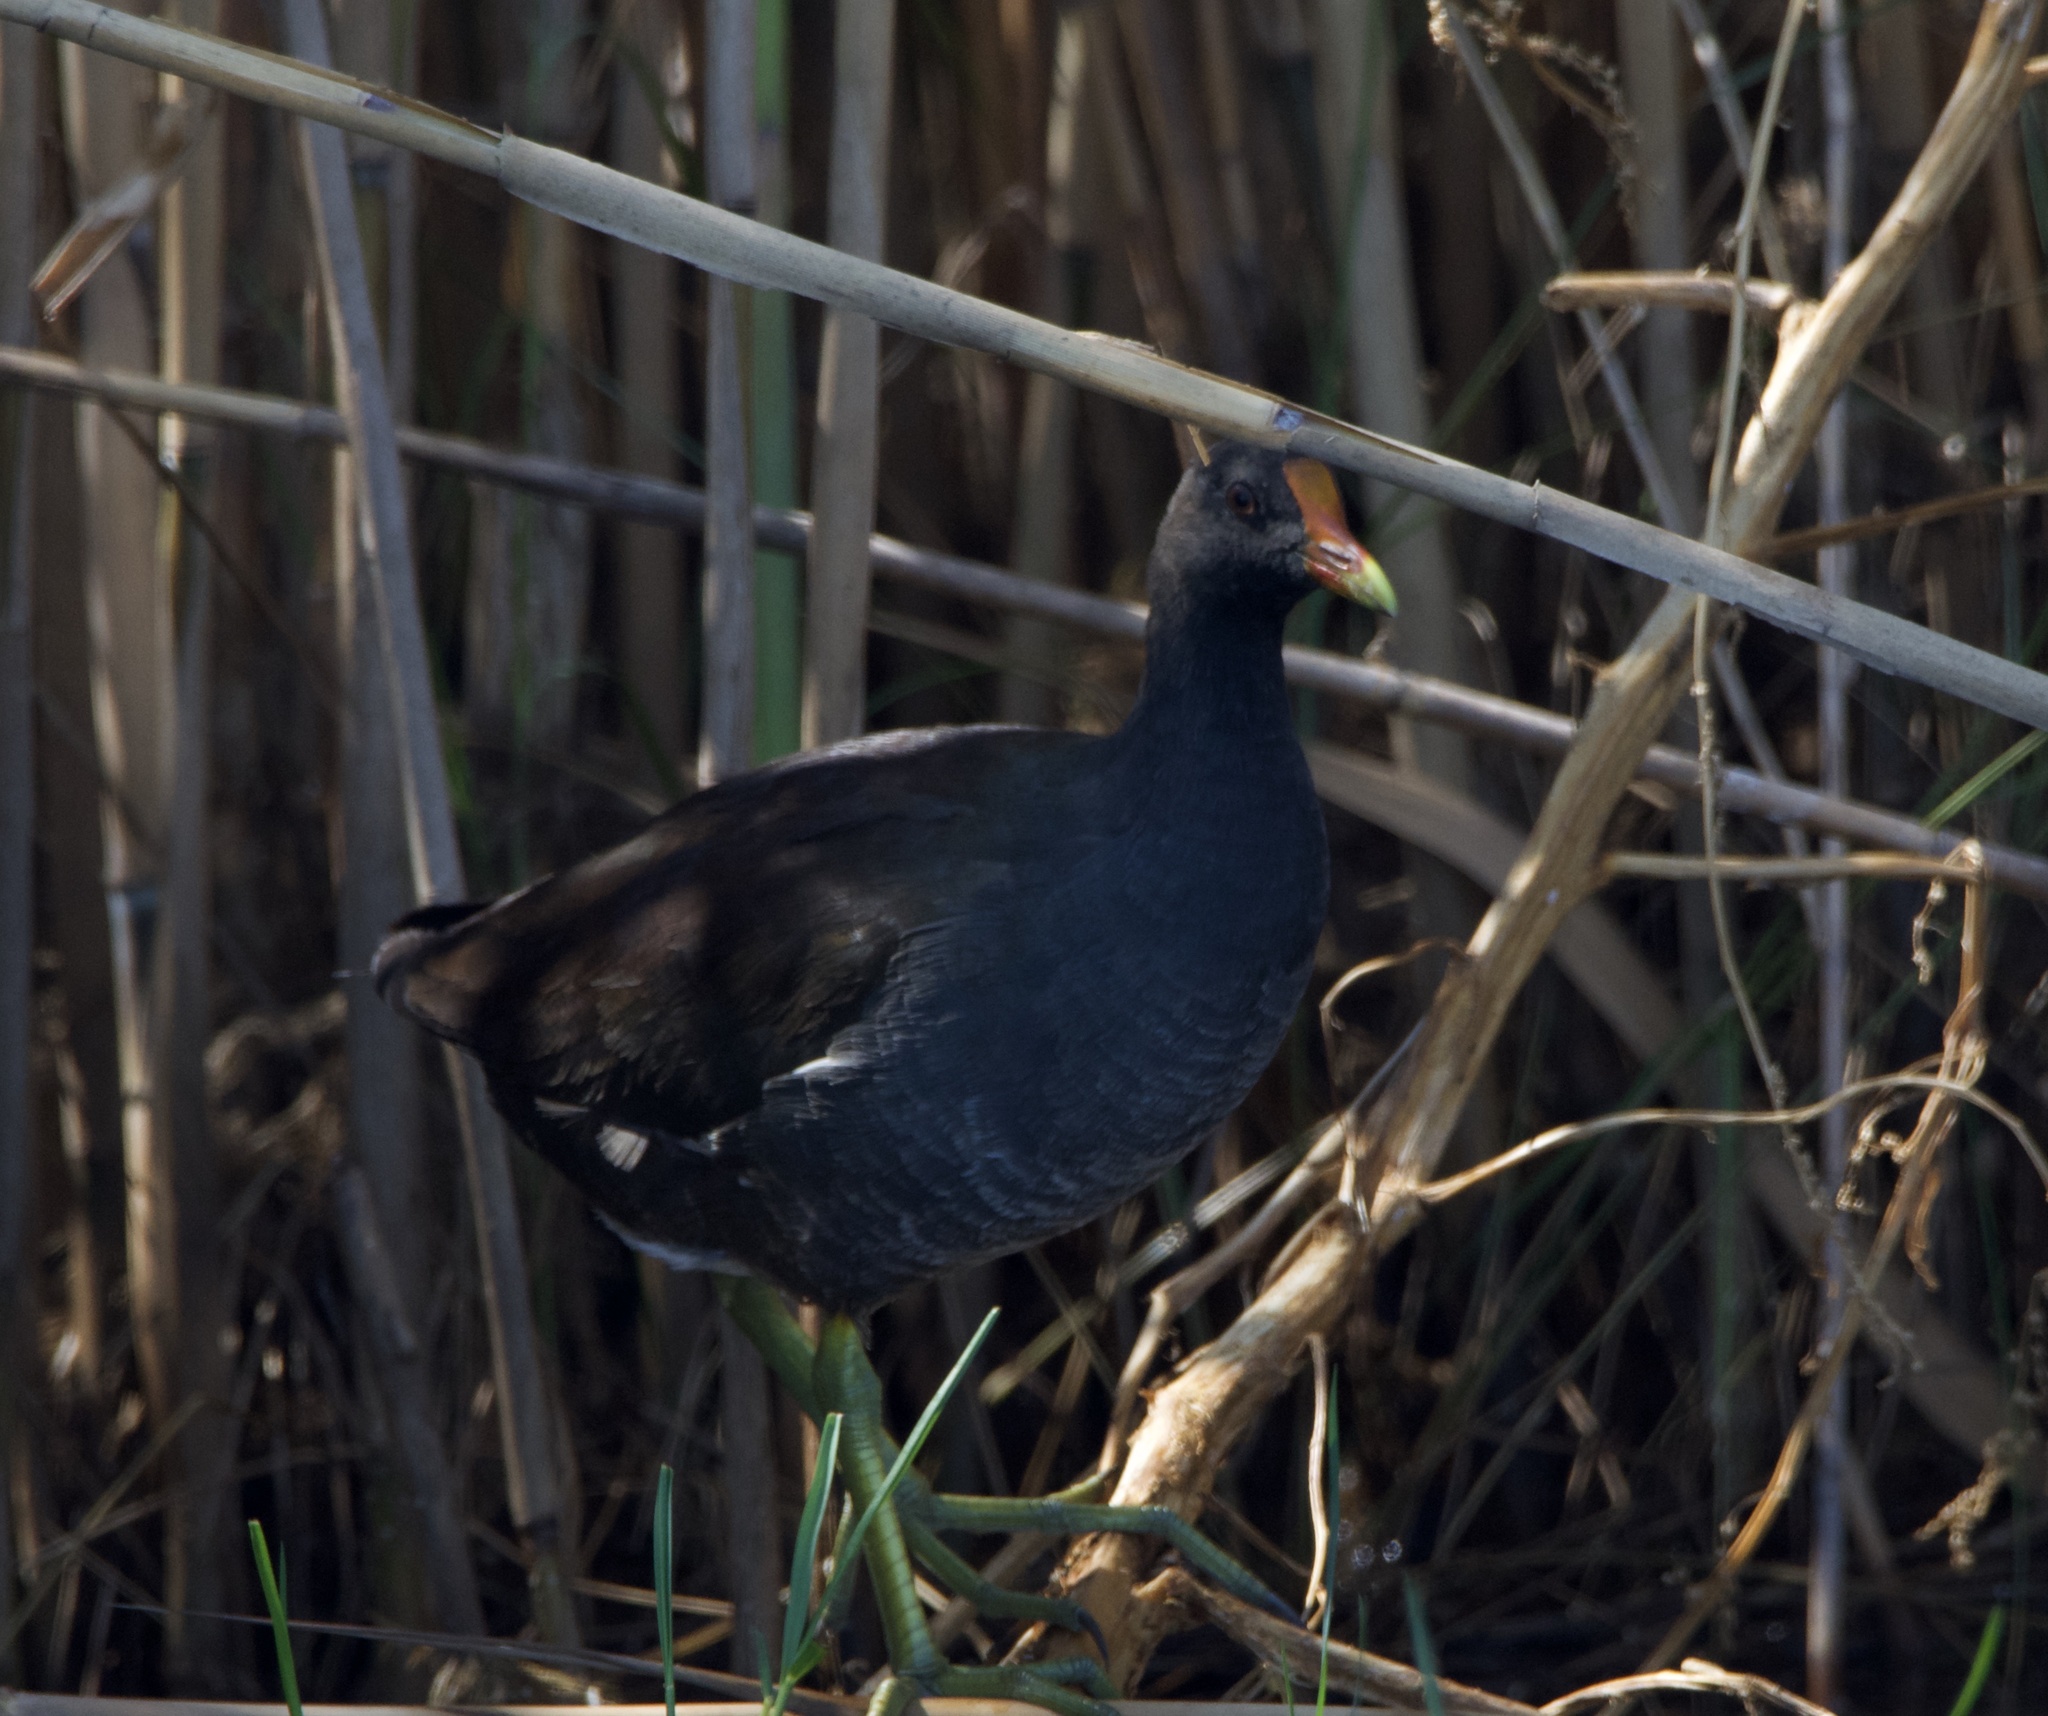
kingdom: Animalia
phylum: Chordata
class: Aves
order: Gruiformes
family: Rallidae
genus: Gallinula
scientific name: Gallinula chloropus
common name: Common moorhen
